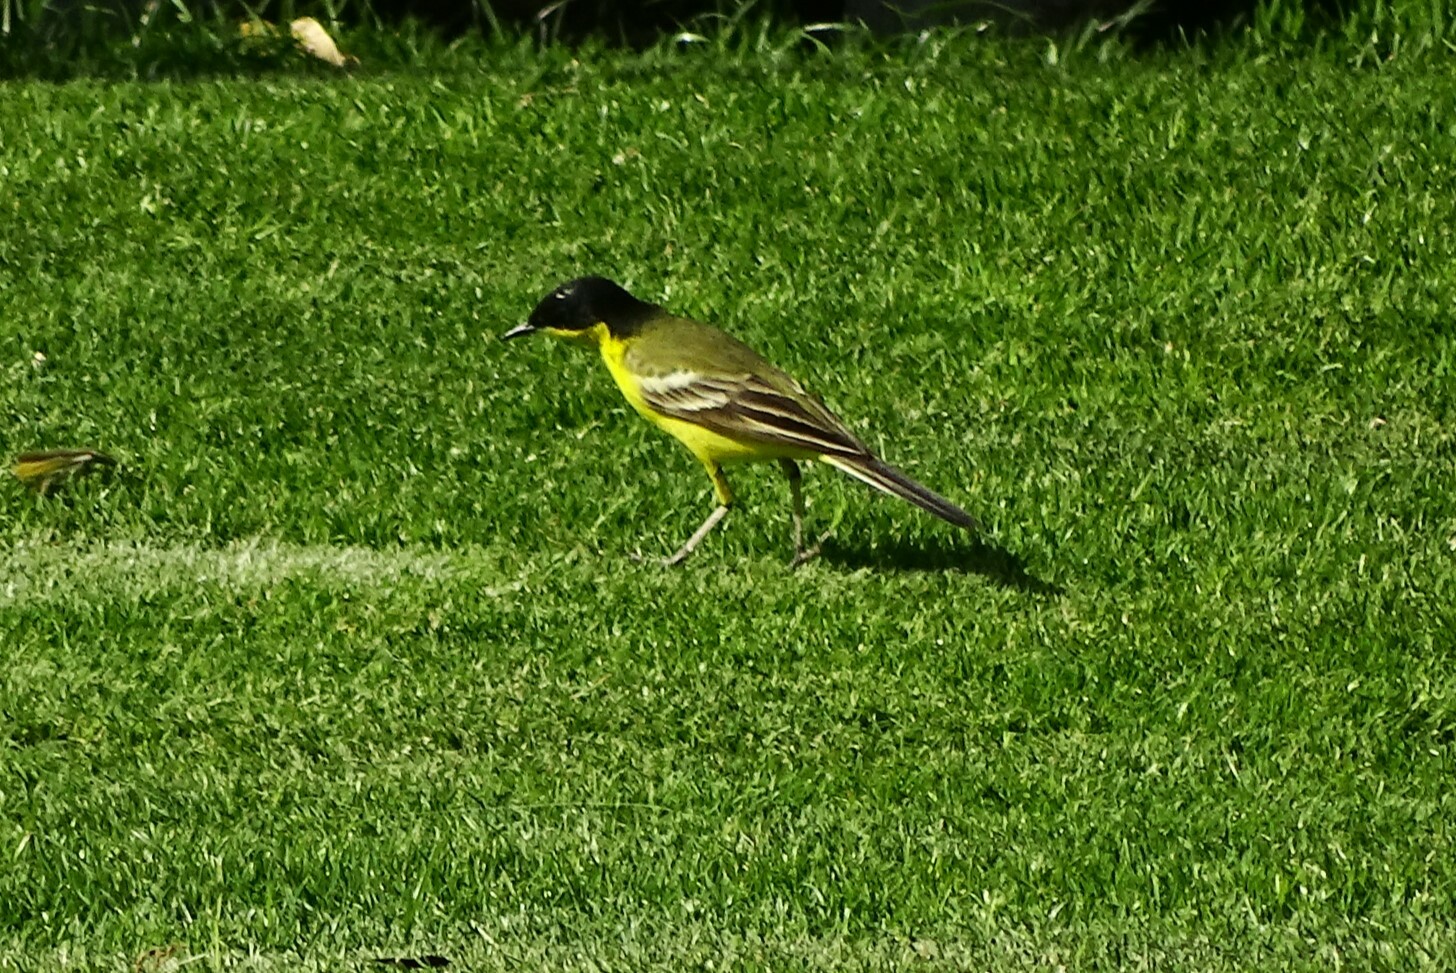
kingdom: Animalia
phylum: Chordata
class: Aves
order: Passeriformes
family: Motacillidae
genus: Motacilla
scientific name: Motacilla flava
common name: Western yellow wagtail
